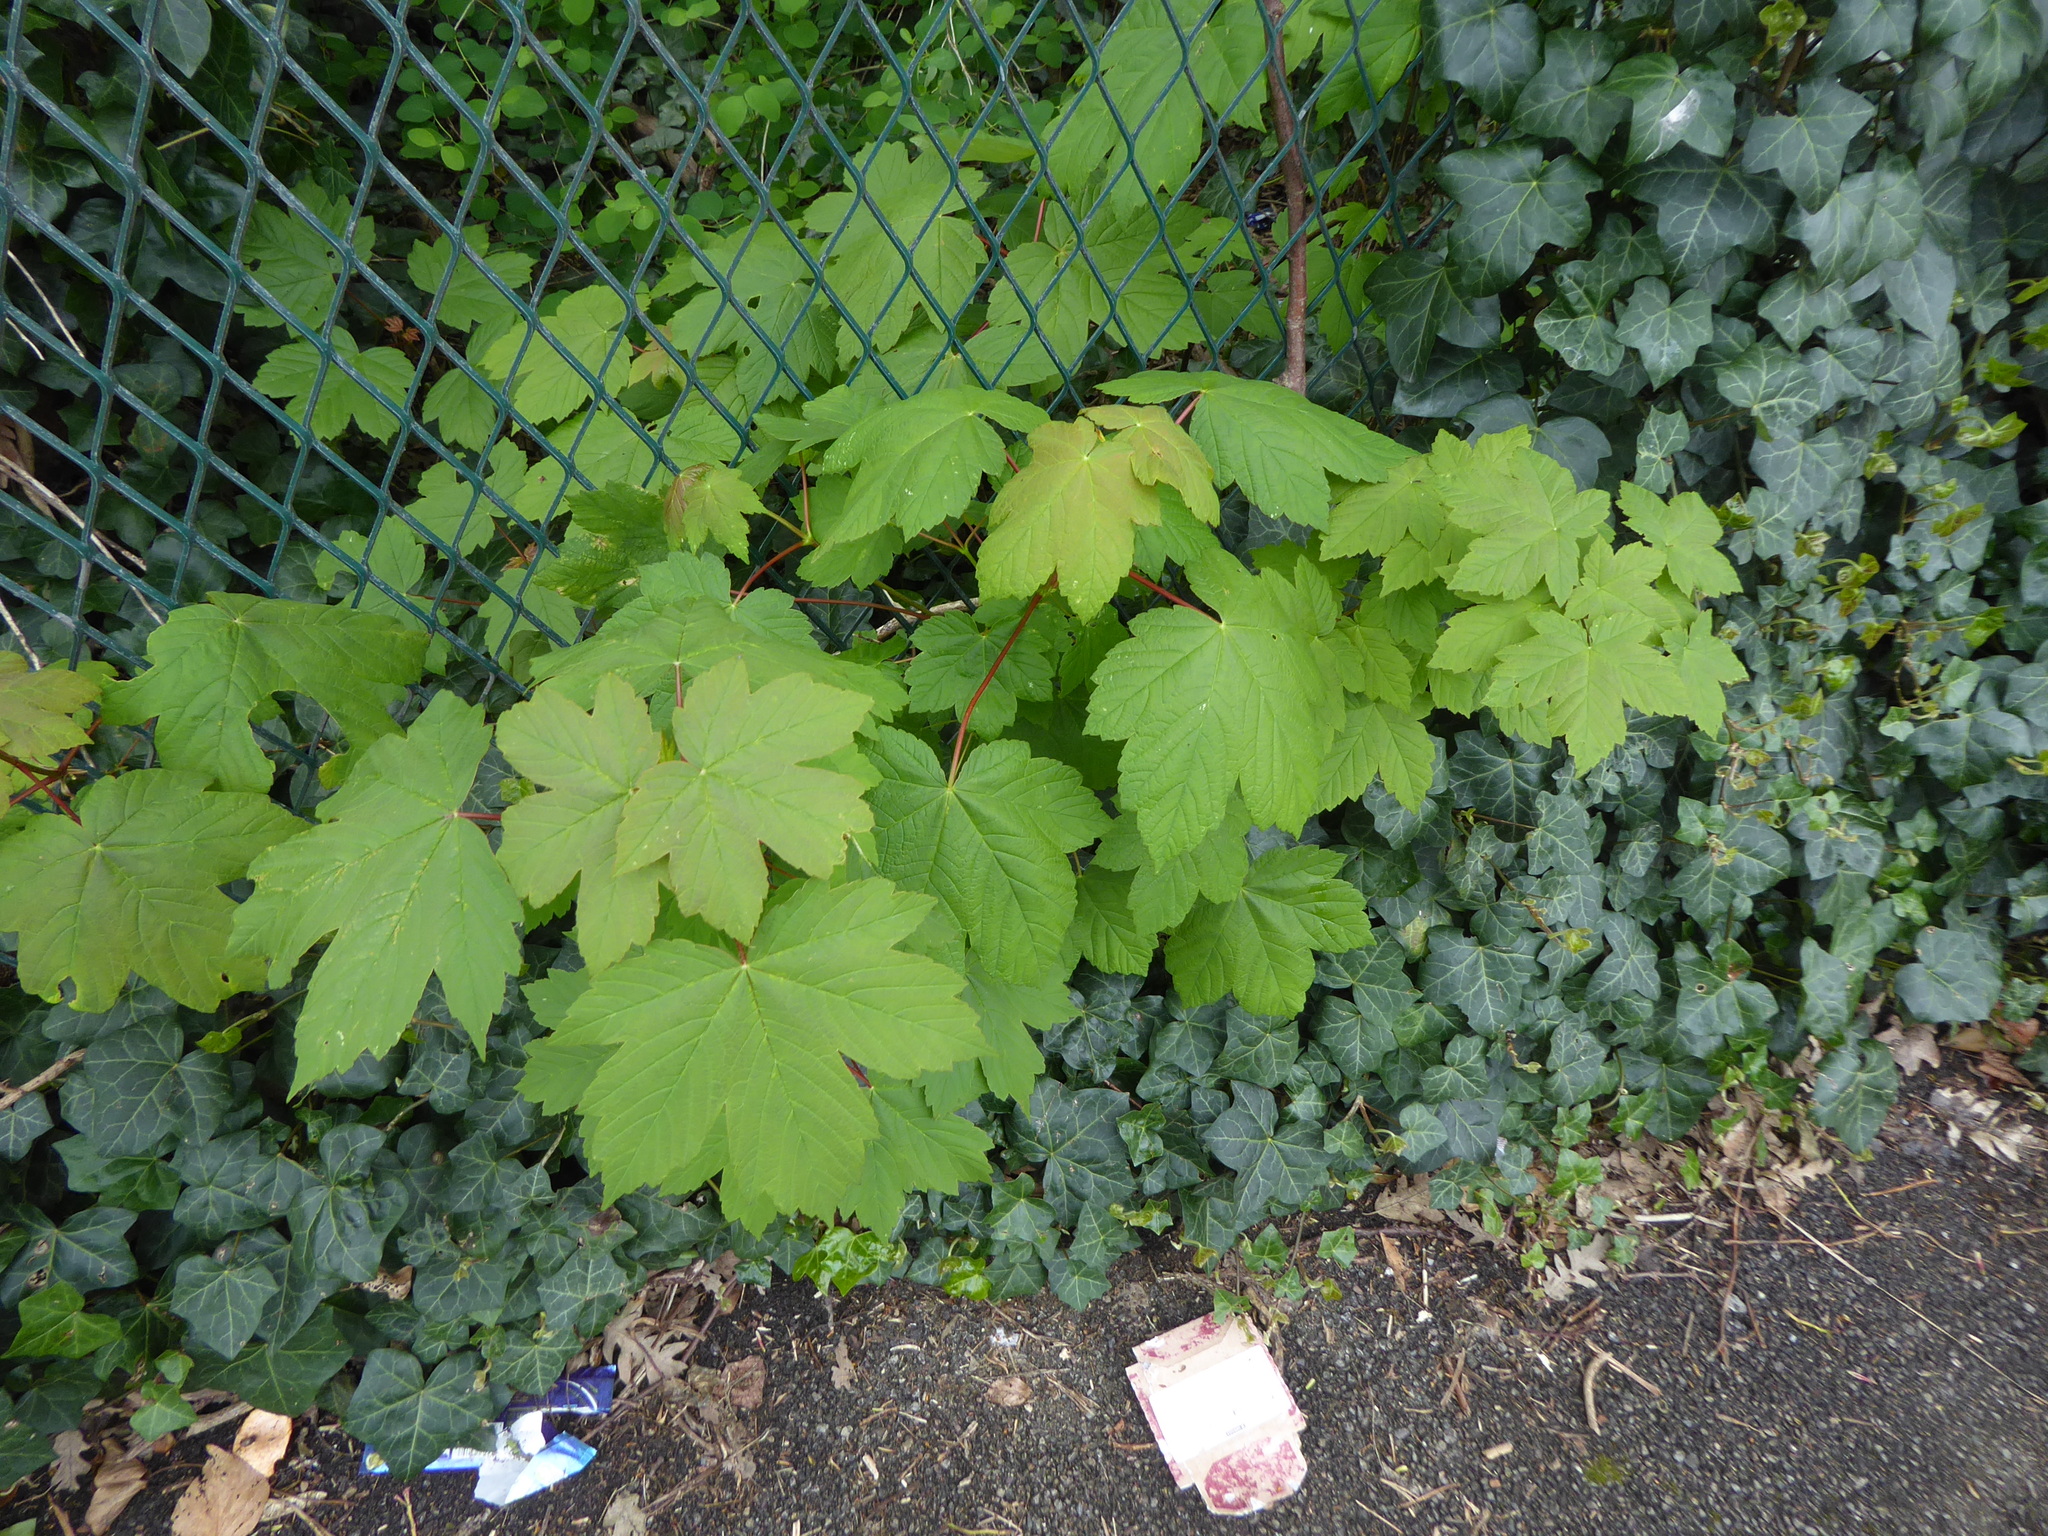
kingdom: Plantae
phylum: Tracheophyta
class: Magnoliopsida
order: Sapindales
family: Sapindaceae
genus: Acer
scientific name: Acer pseudoplatanus
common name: Sycamore
